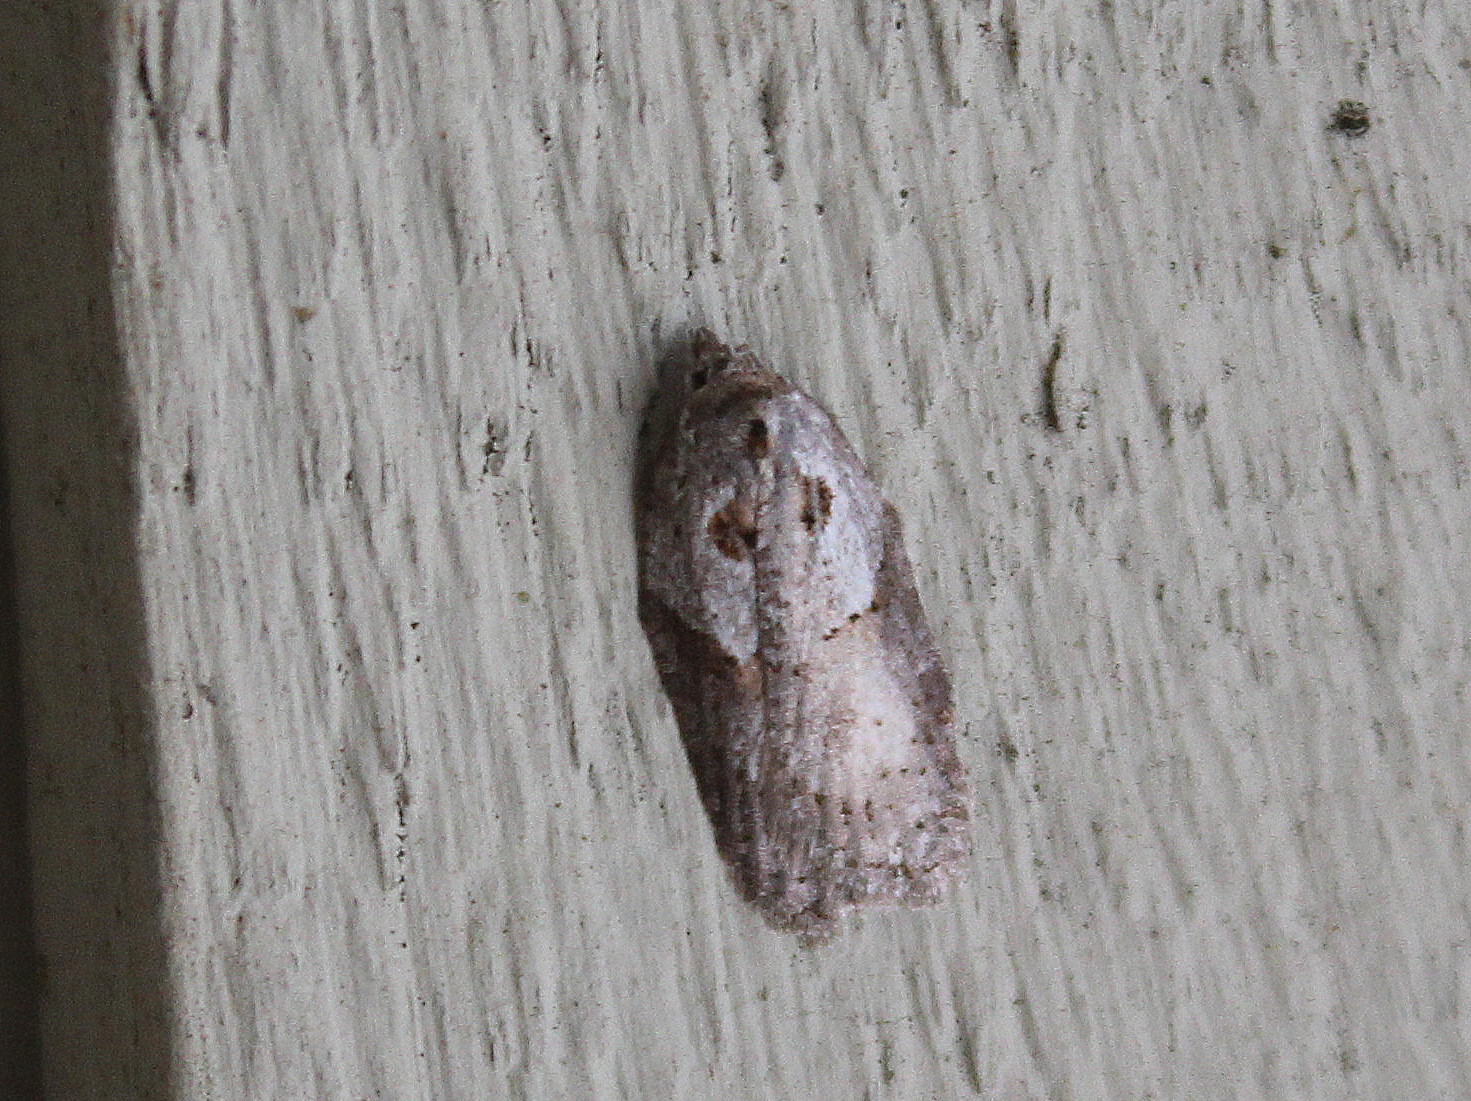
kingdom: Animalia
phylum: Arthropoda
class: Insecta
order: Lepidoptera
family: Tortricidae
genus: Acleris
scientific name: Acleris maculidorsana
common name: Stained-back leafroller moth
